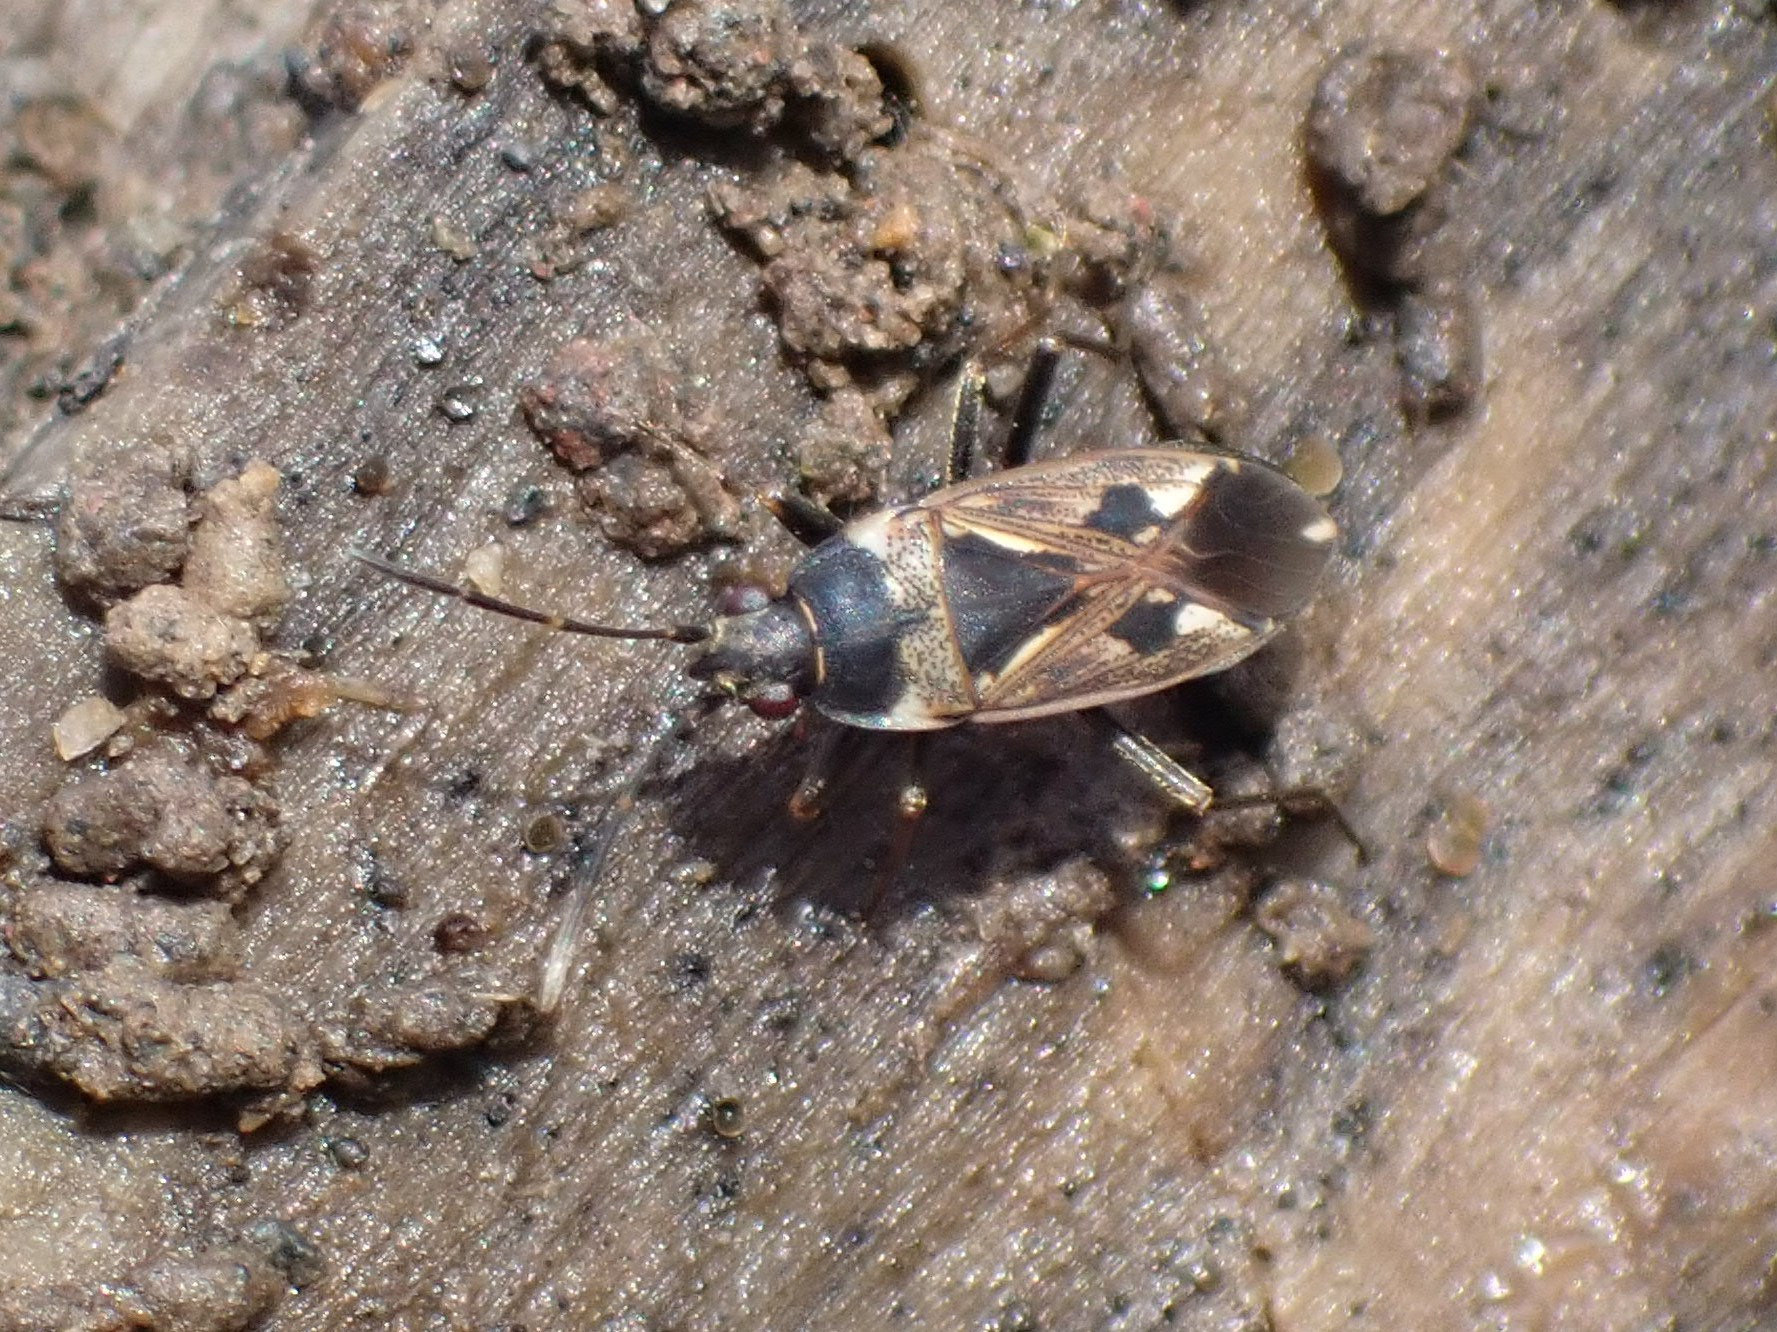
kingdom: Animalia
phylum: Arthropoda
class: Insecta
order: Hemiptera
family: Rhyparochromidae
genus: Rhyparochromus
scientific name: Rhyparochromus vulgaris
